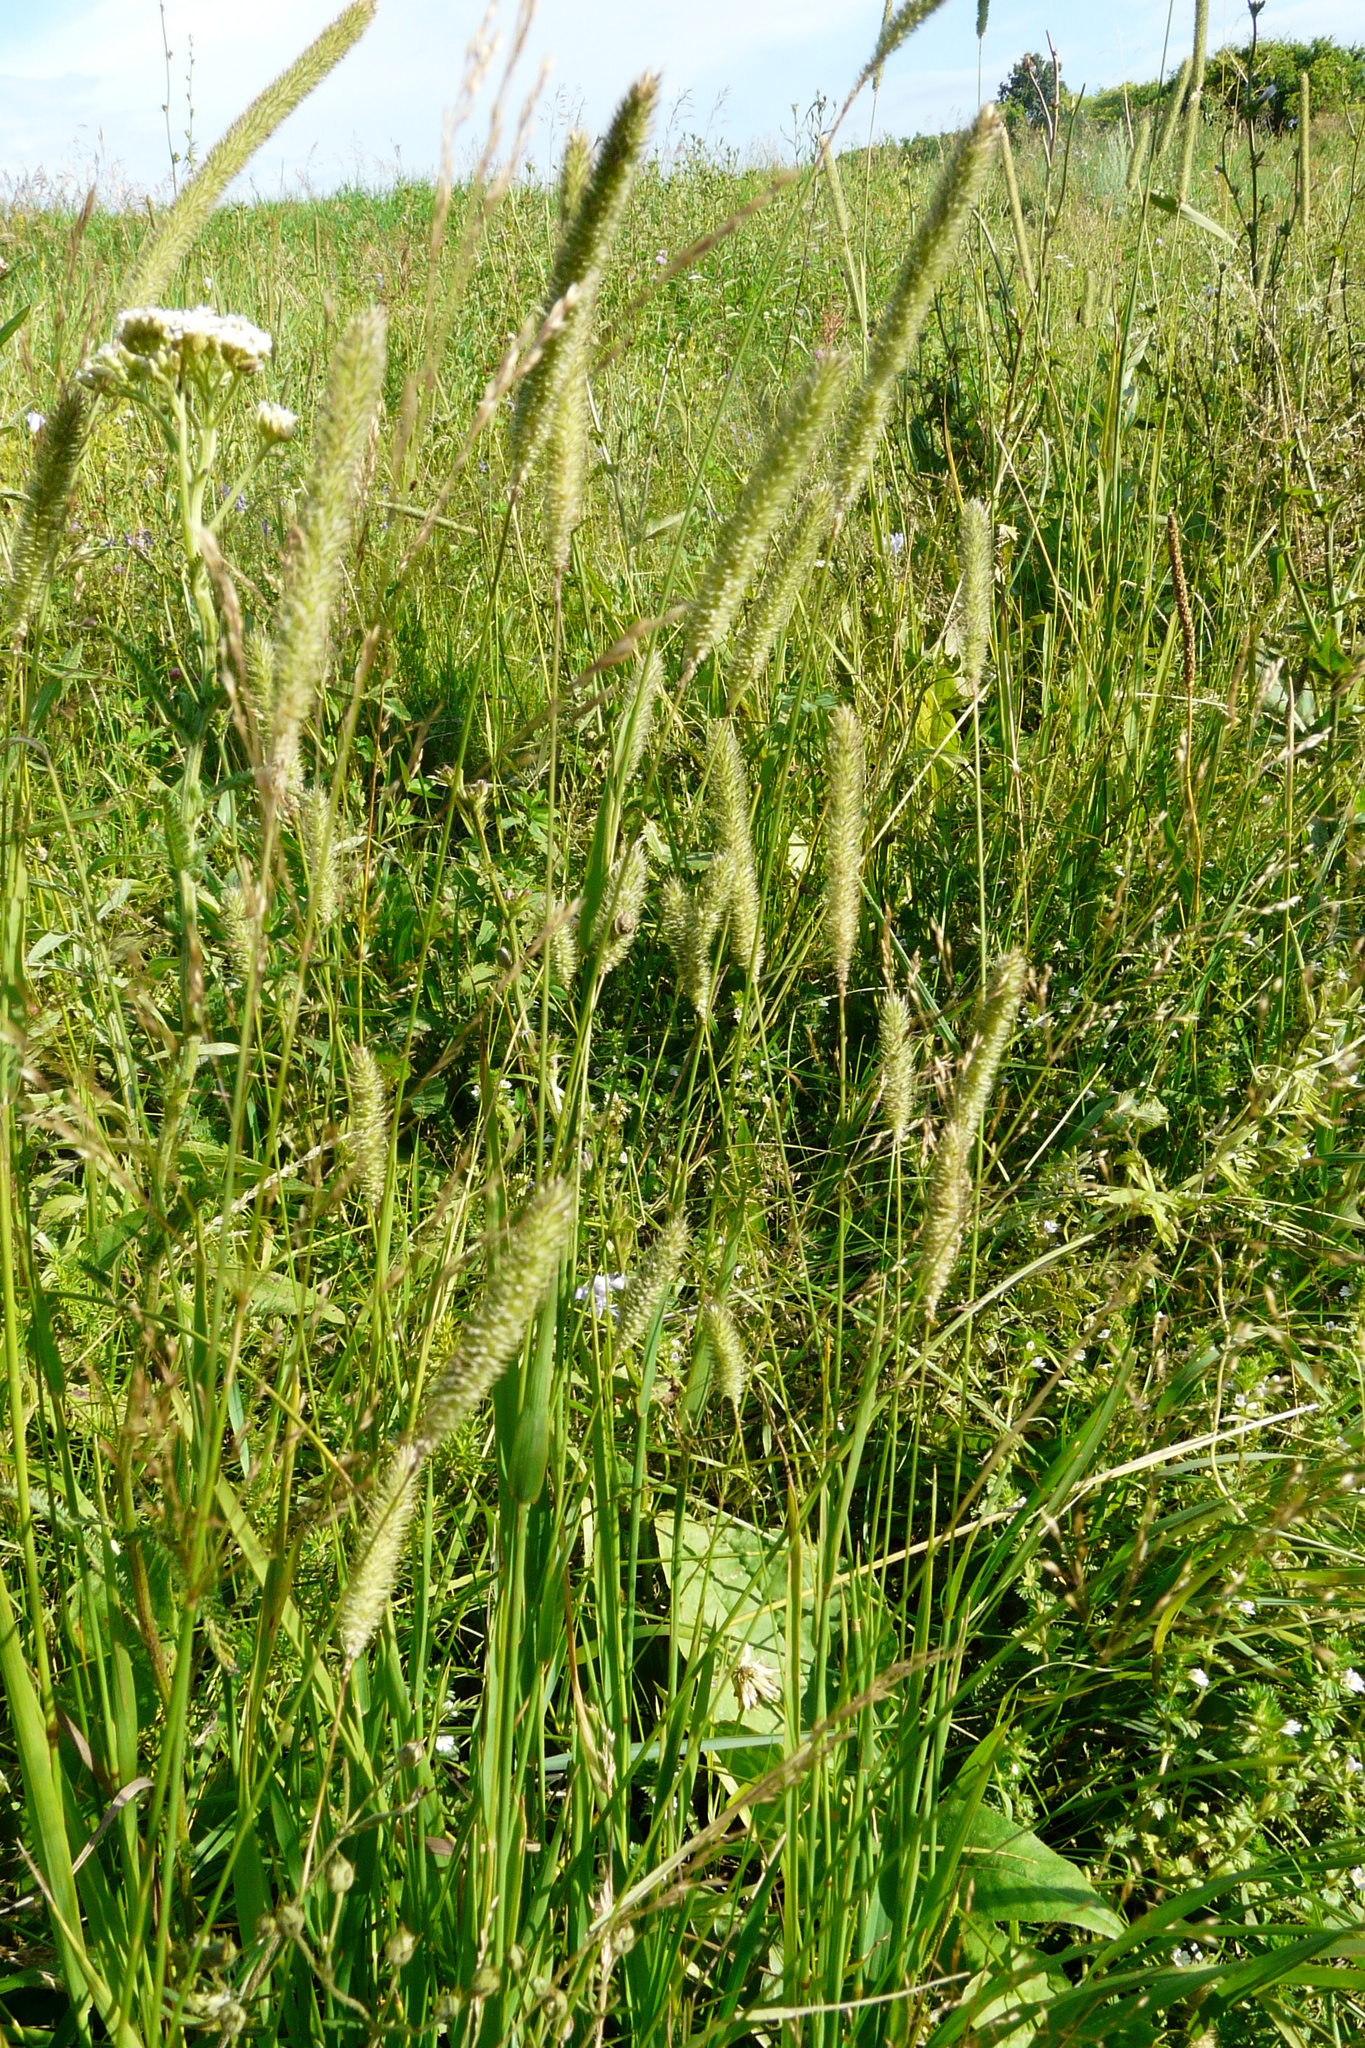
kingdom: Plantae
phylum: Tracheophyta
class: Liliopsida
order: Poales
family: Poaceae
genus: Phleum
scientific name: Phleum pratense
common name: Timothy grass
